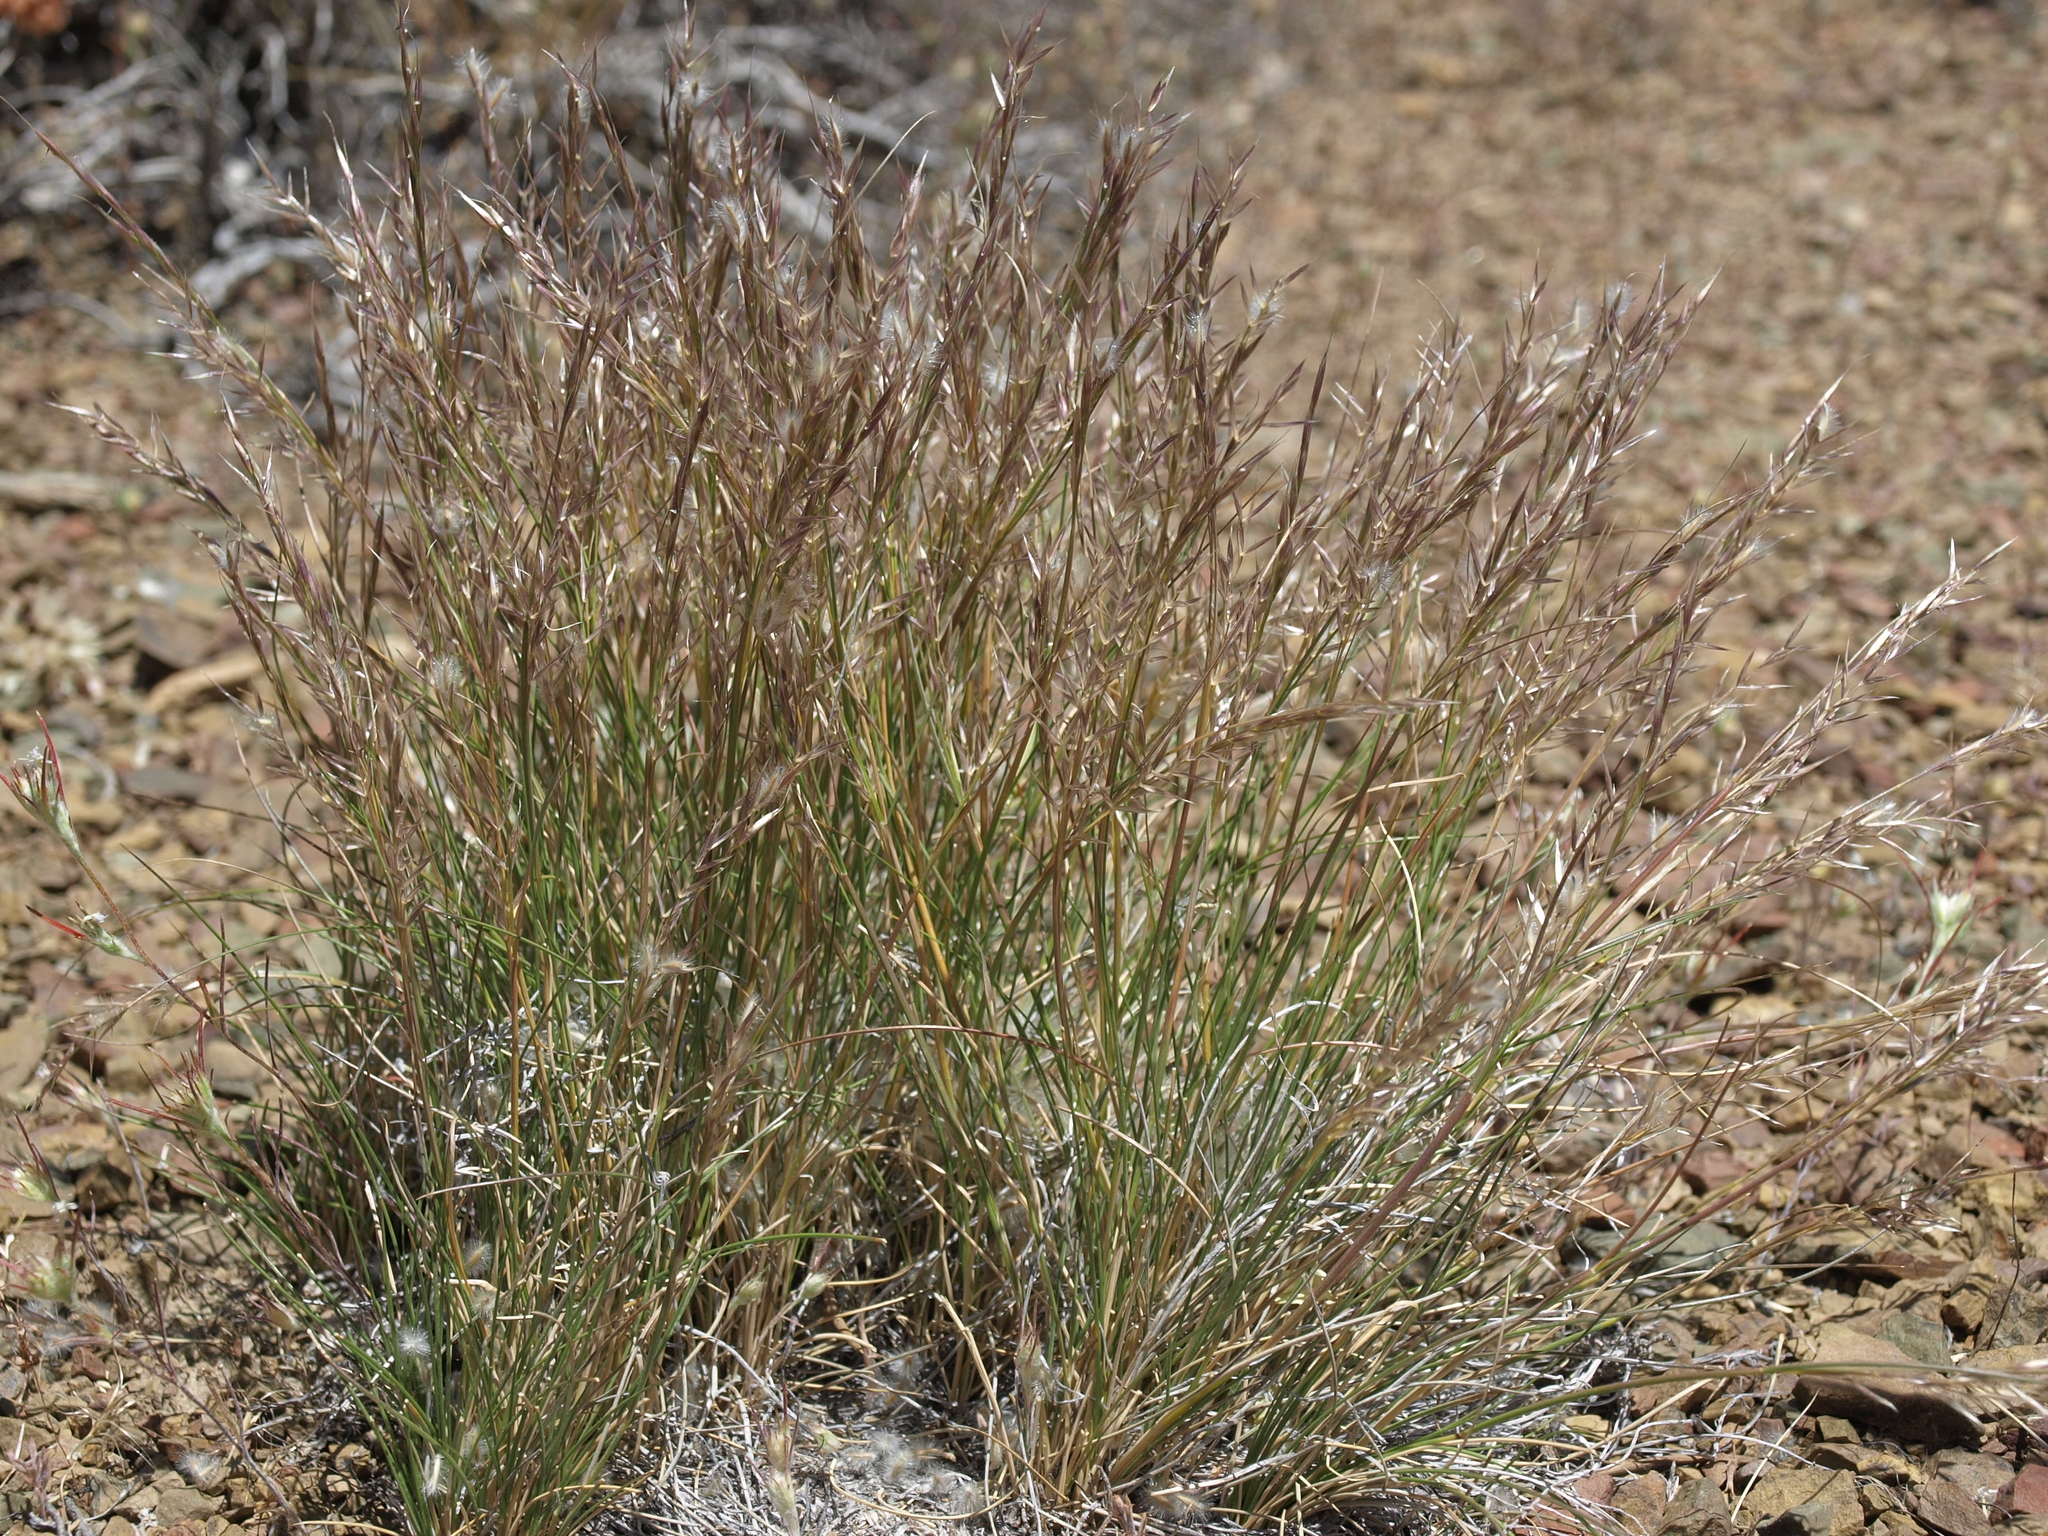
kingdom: Plantae
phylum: Tracheophyta
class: Liliopsida
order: Poales
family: Poaceae
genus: Eriocoma
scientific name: Eriocoma webberi
